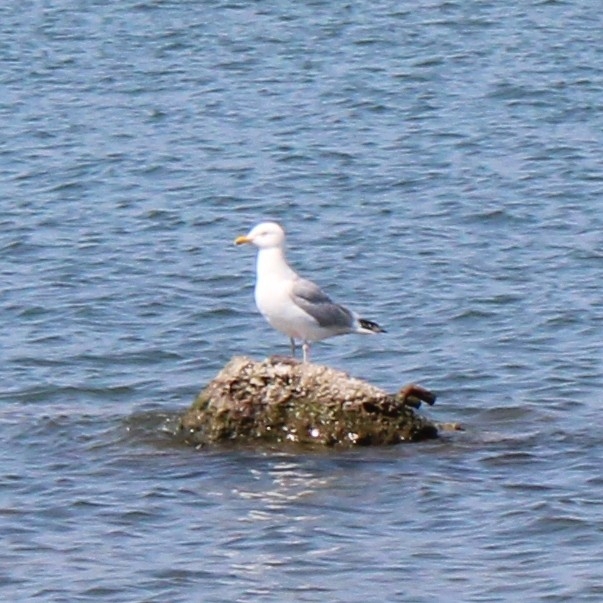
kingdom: Animalia
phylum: Chordata
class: Aves
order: Charadriiformes
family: Laridae
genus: Larus
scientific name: Larus argentatus
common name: Herring gull
